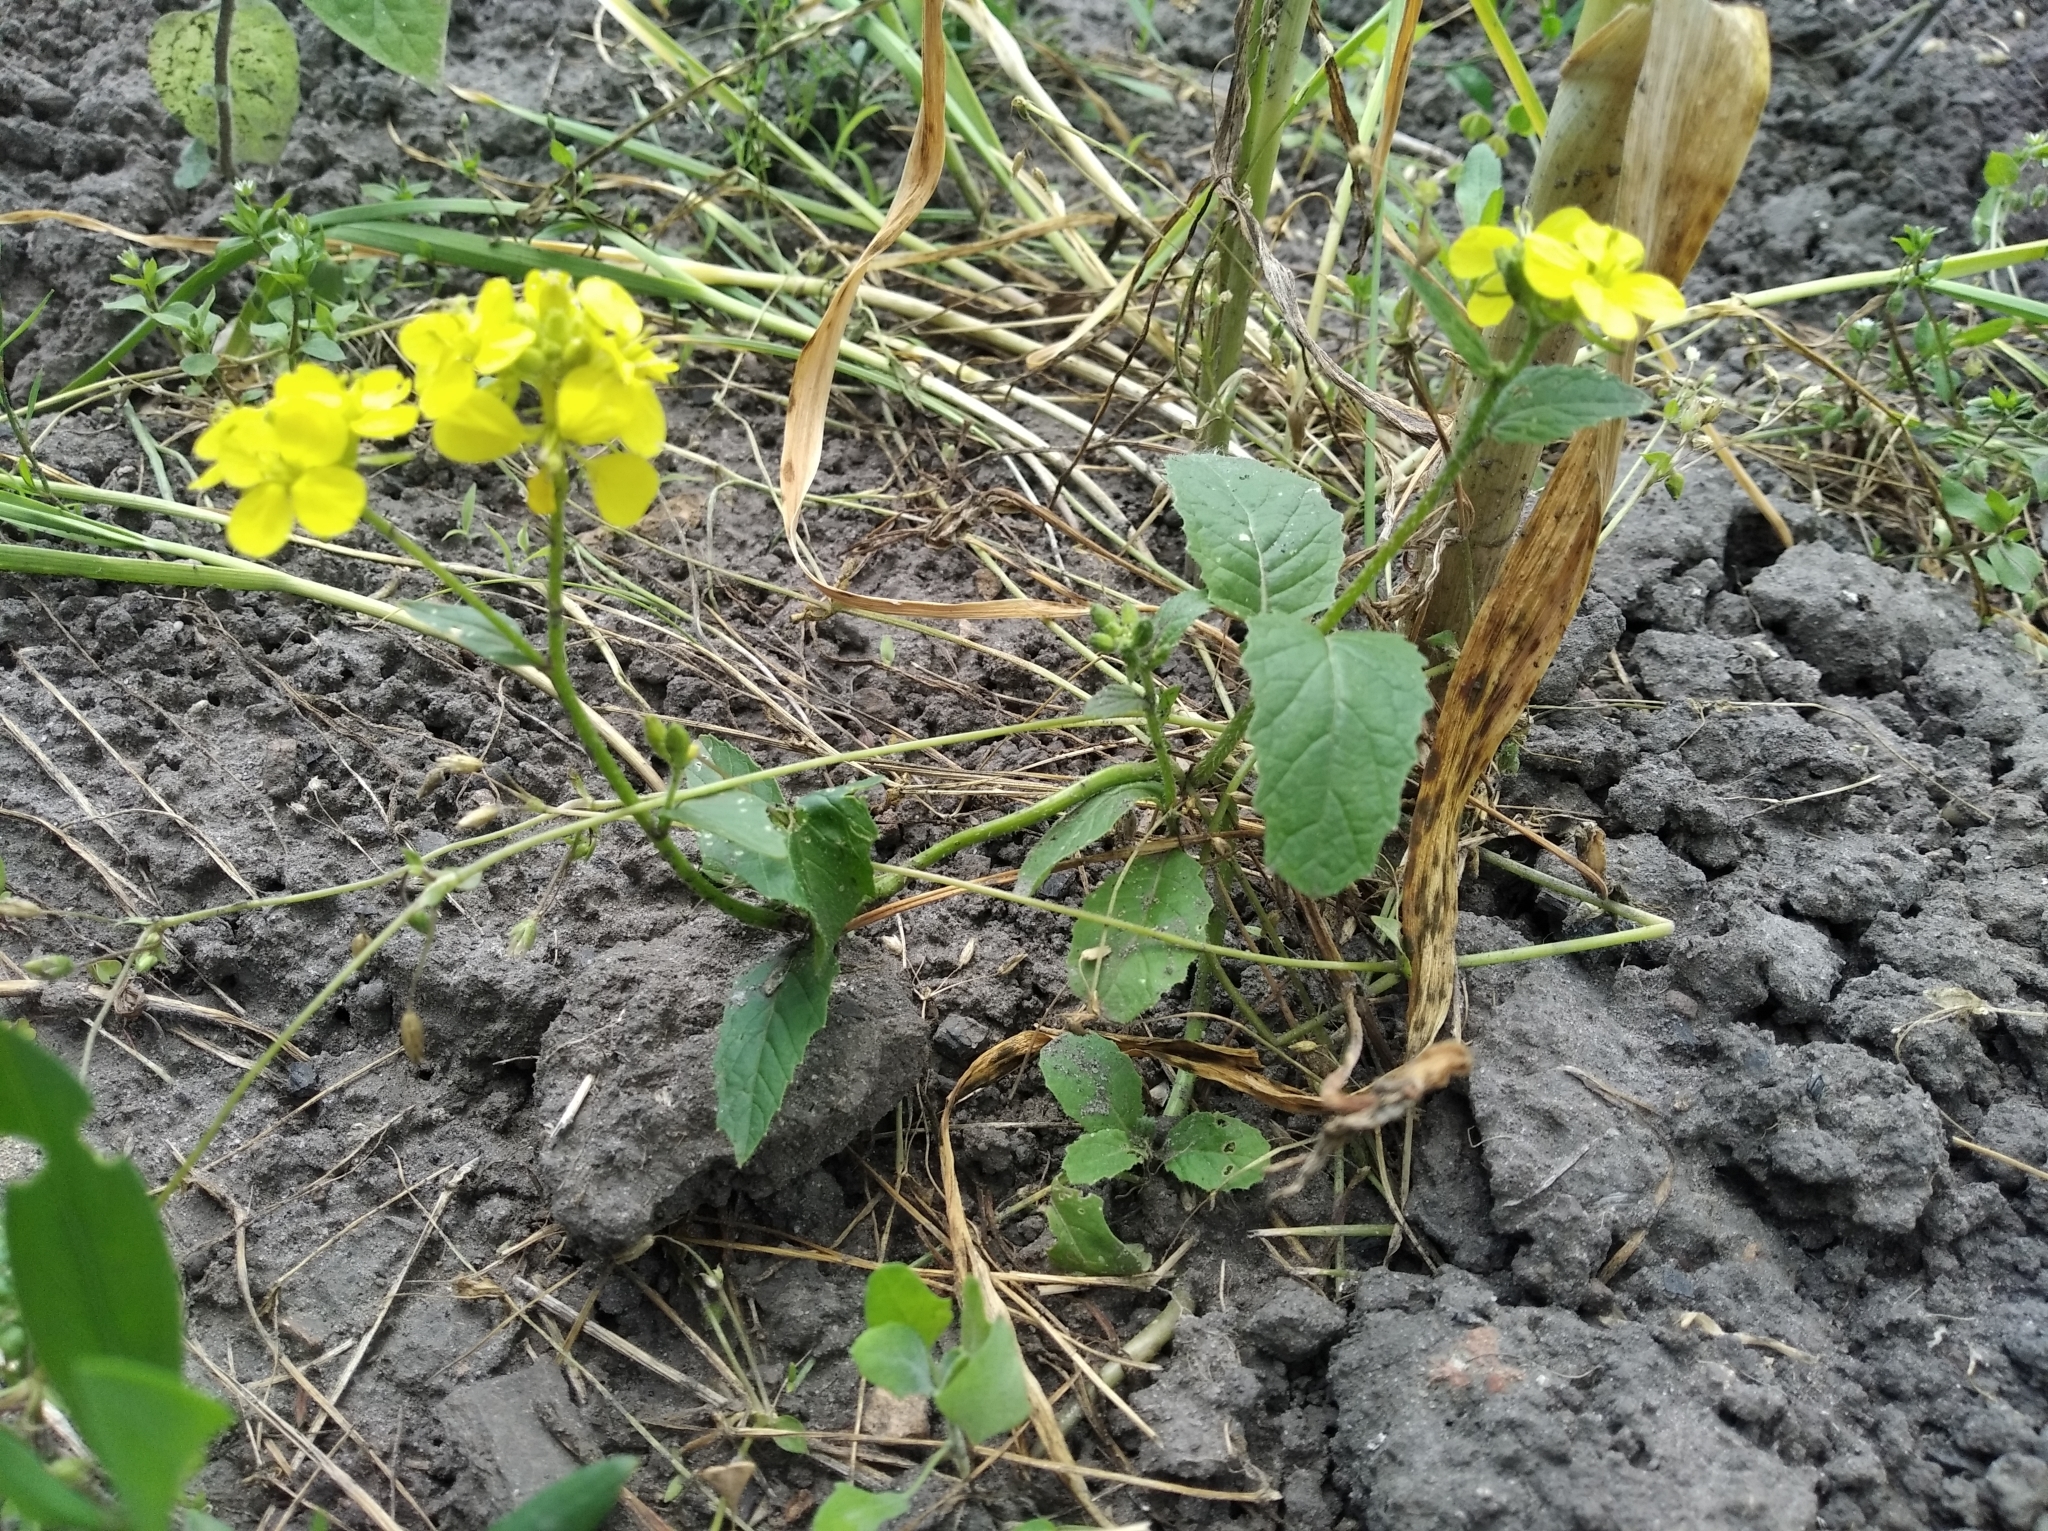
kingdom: Plantae
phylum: Tracheophyta
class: Magnoliopsida
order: Brassicales
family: Brassicaceae
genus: Sinapis
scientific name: Sinapis arvensis
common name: Charlock
